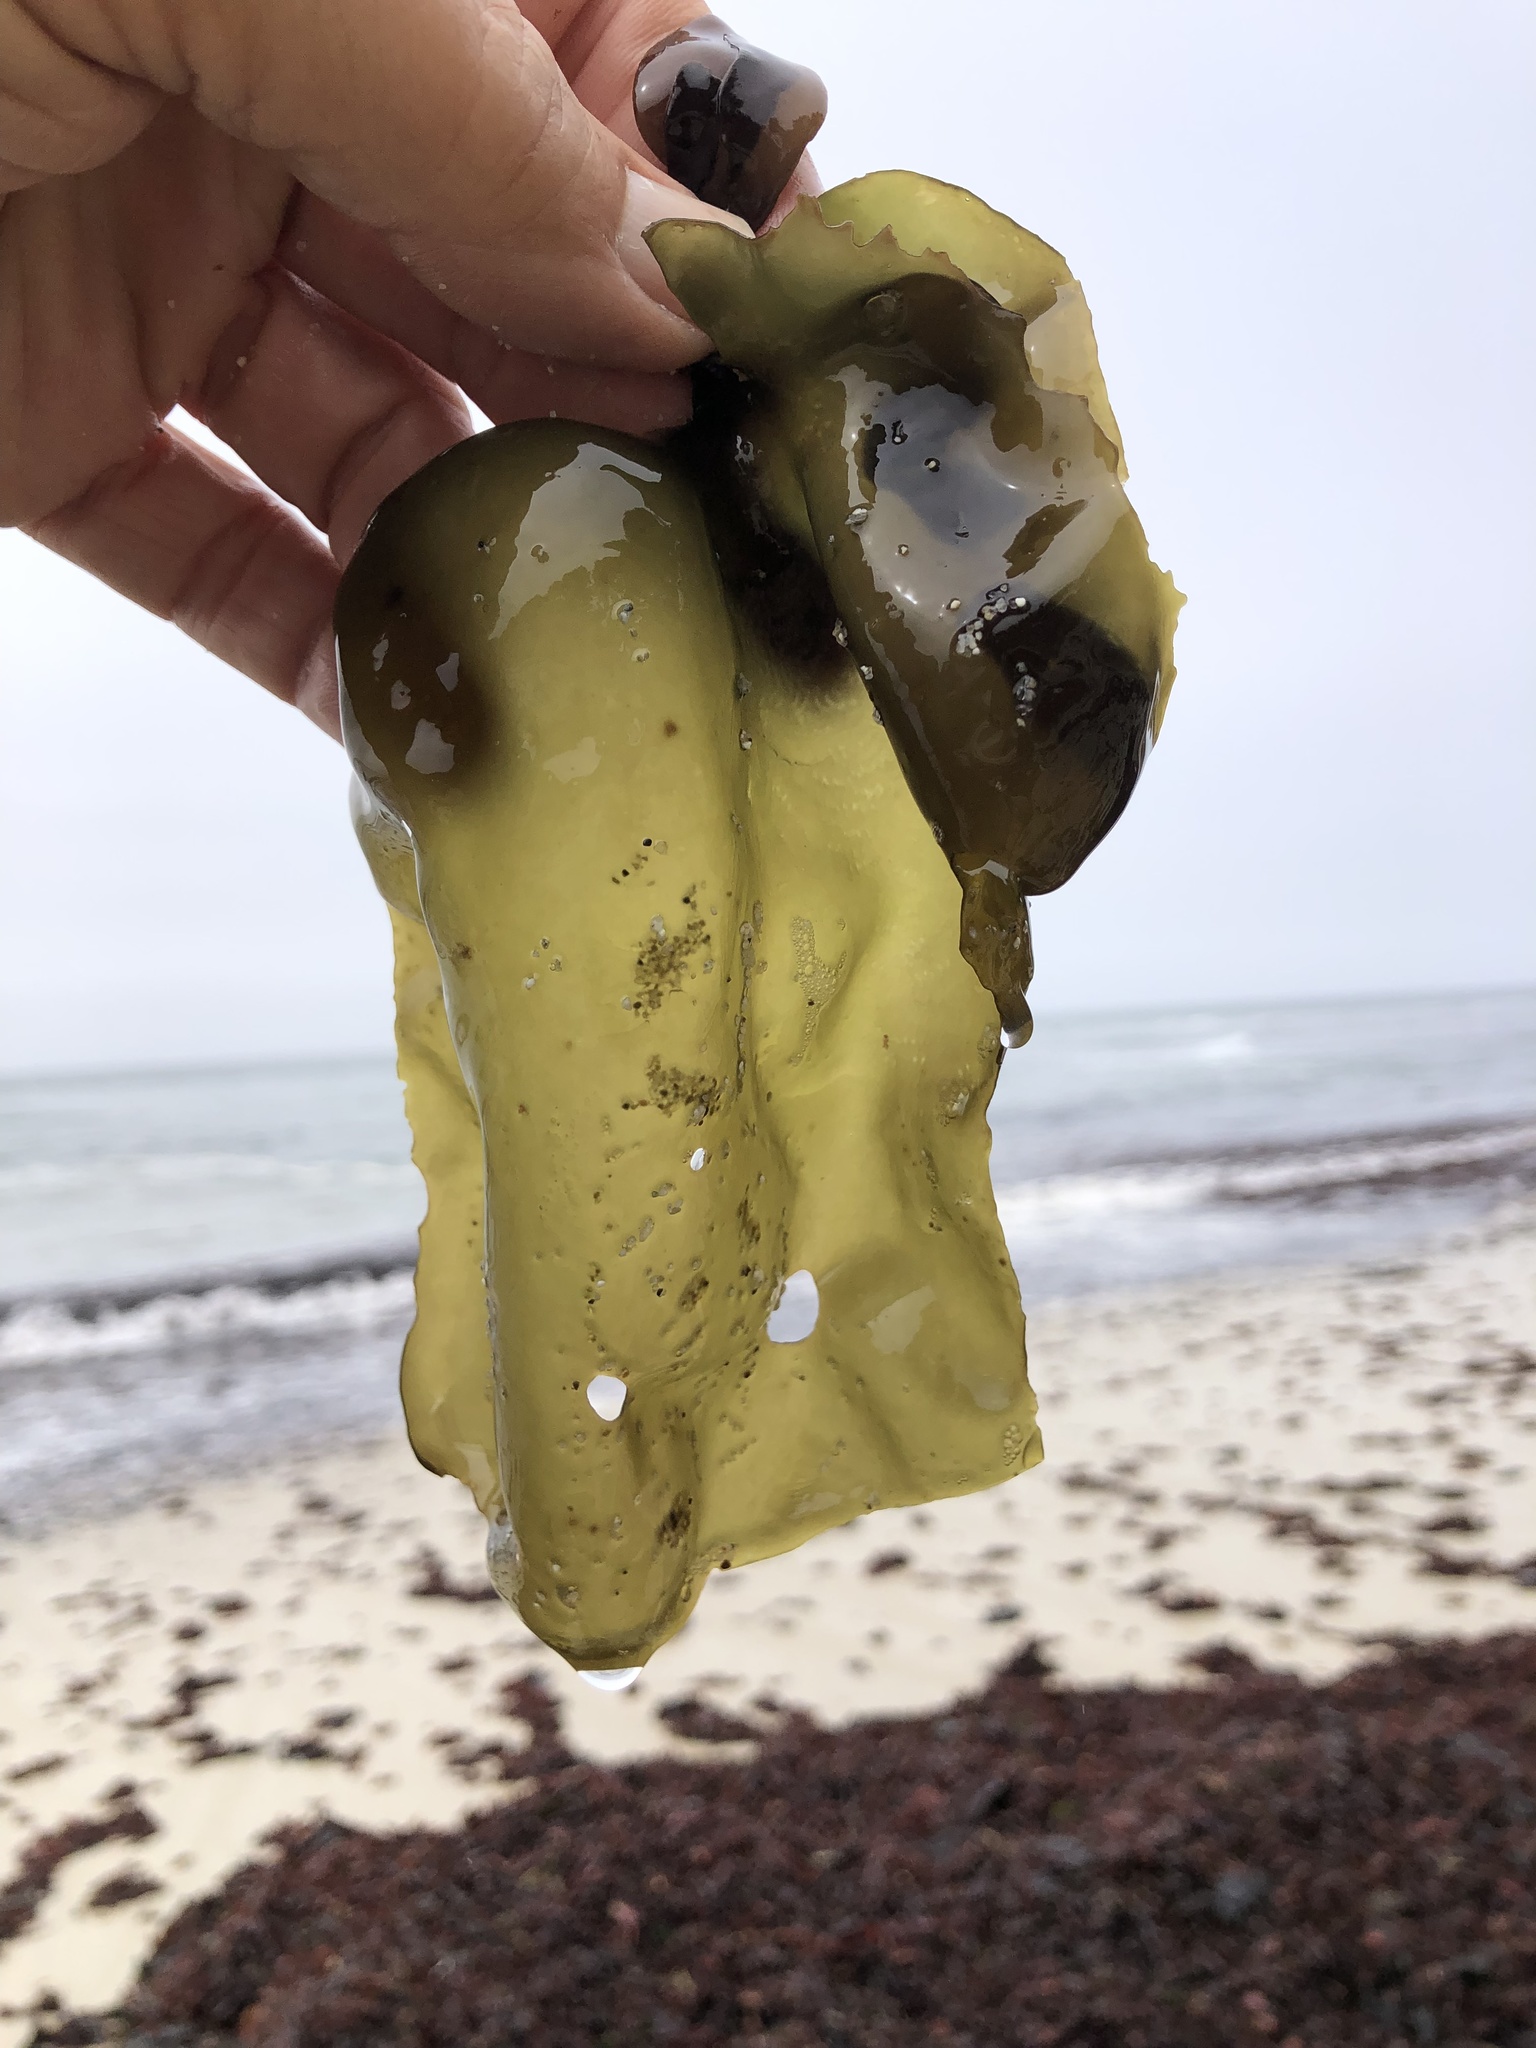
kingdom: Plantae
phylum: Rhodophyta
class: Florideophyceae
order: Gigartinales
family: Gigartinaceae
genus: Mazzaella
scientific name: Mazzaella flaccida
